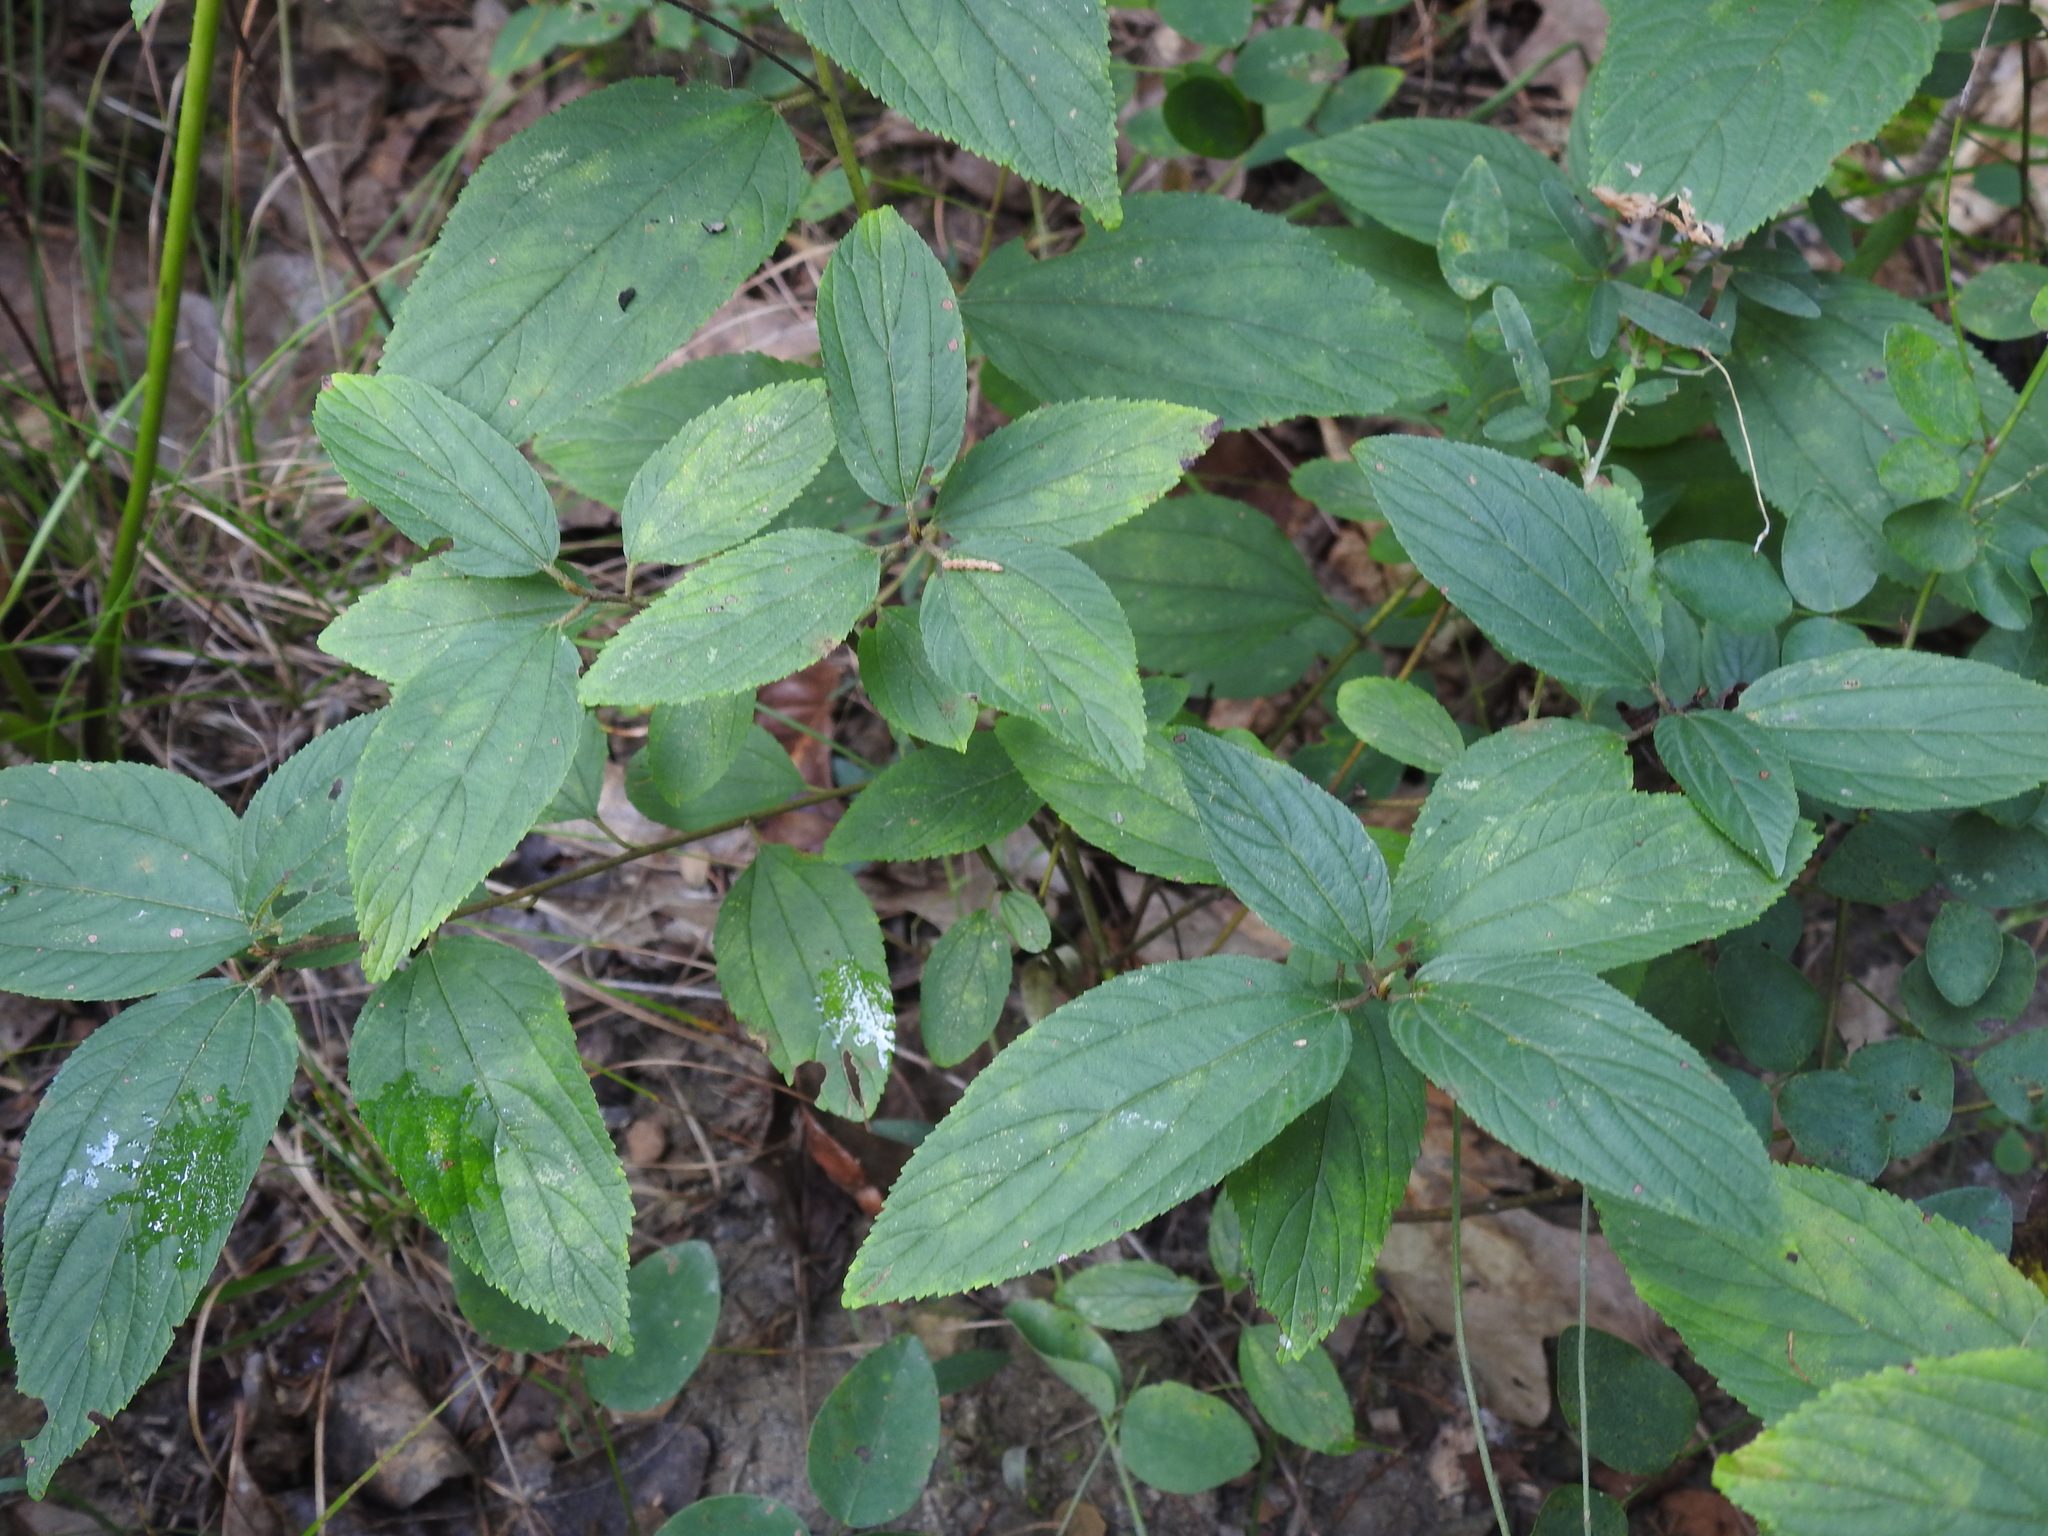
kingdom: Plantae
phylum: Tracheophyta
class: Magnoliopsida
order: Rosales
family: Rhamnaceae
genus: Ceanothus
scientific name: Ceanothus americanus
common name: Redroot
